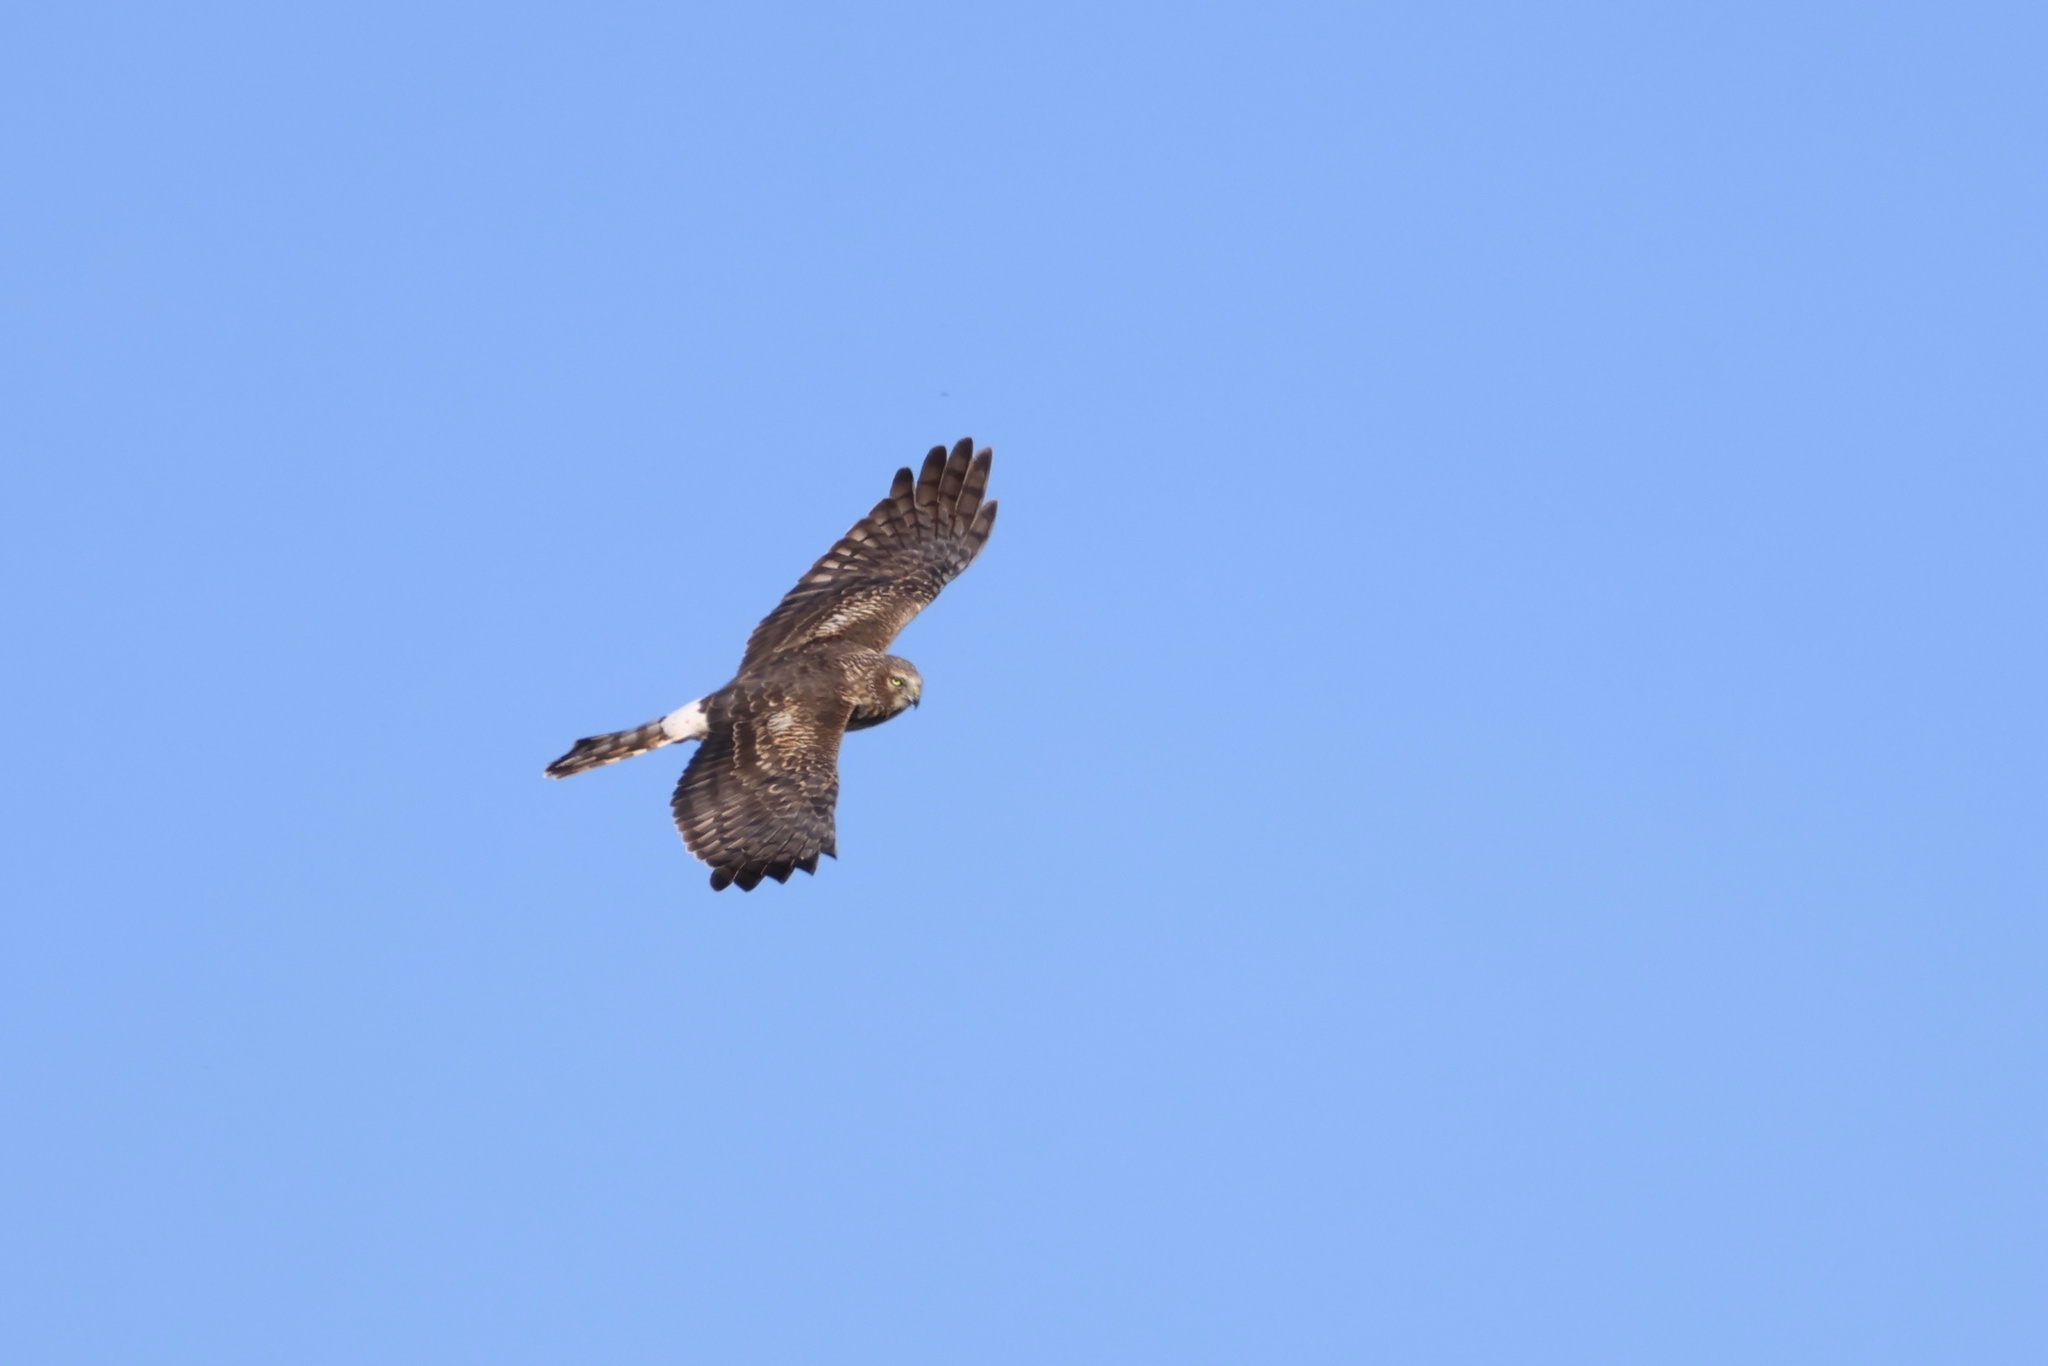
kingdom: Animalia
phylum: Chordata
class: Aves
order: Accipitriformes
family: Accipitridae
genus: Circus
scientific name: Circus cyaneus
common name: Hen harrier
